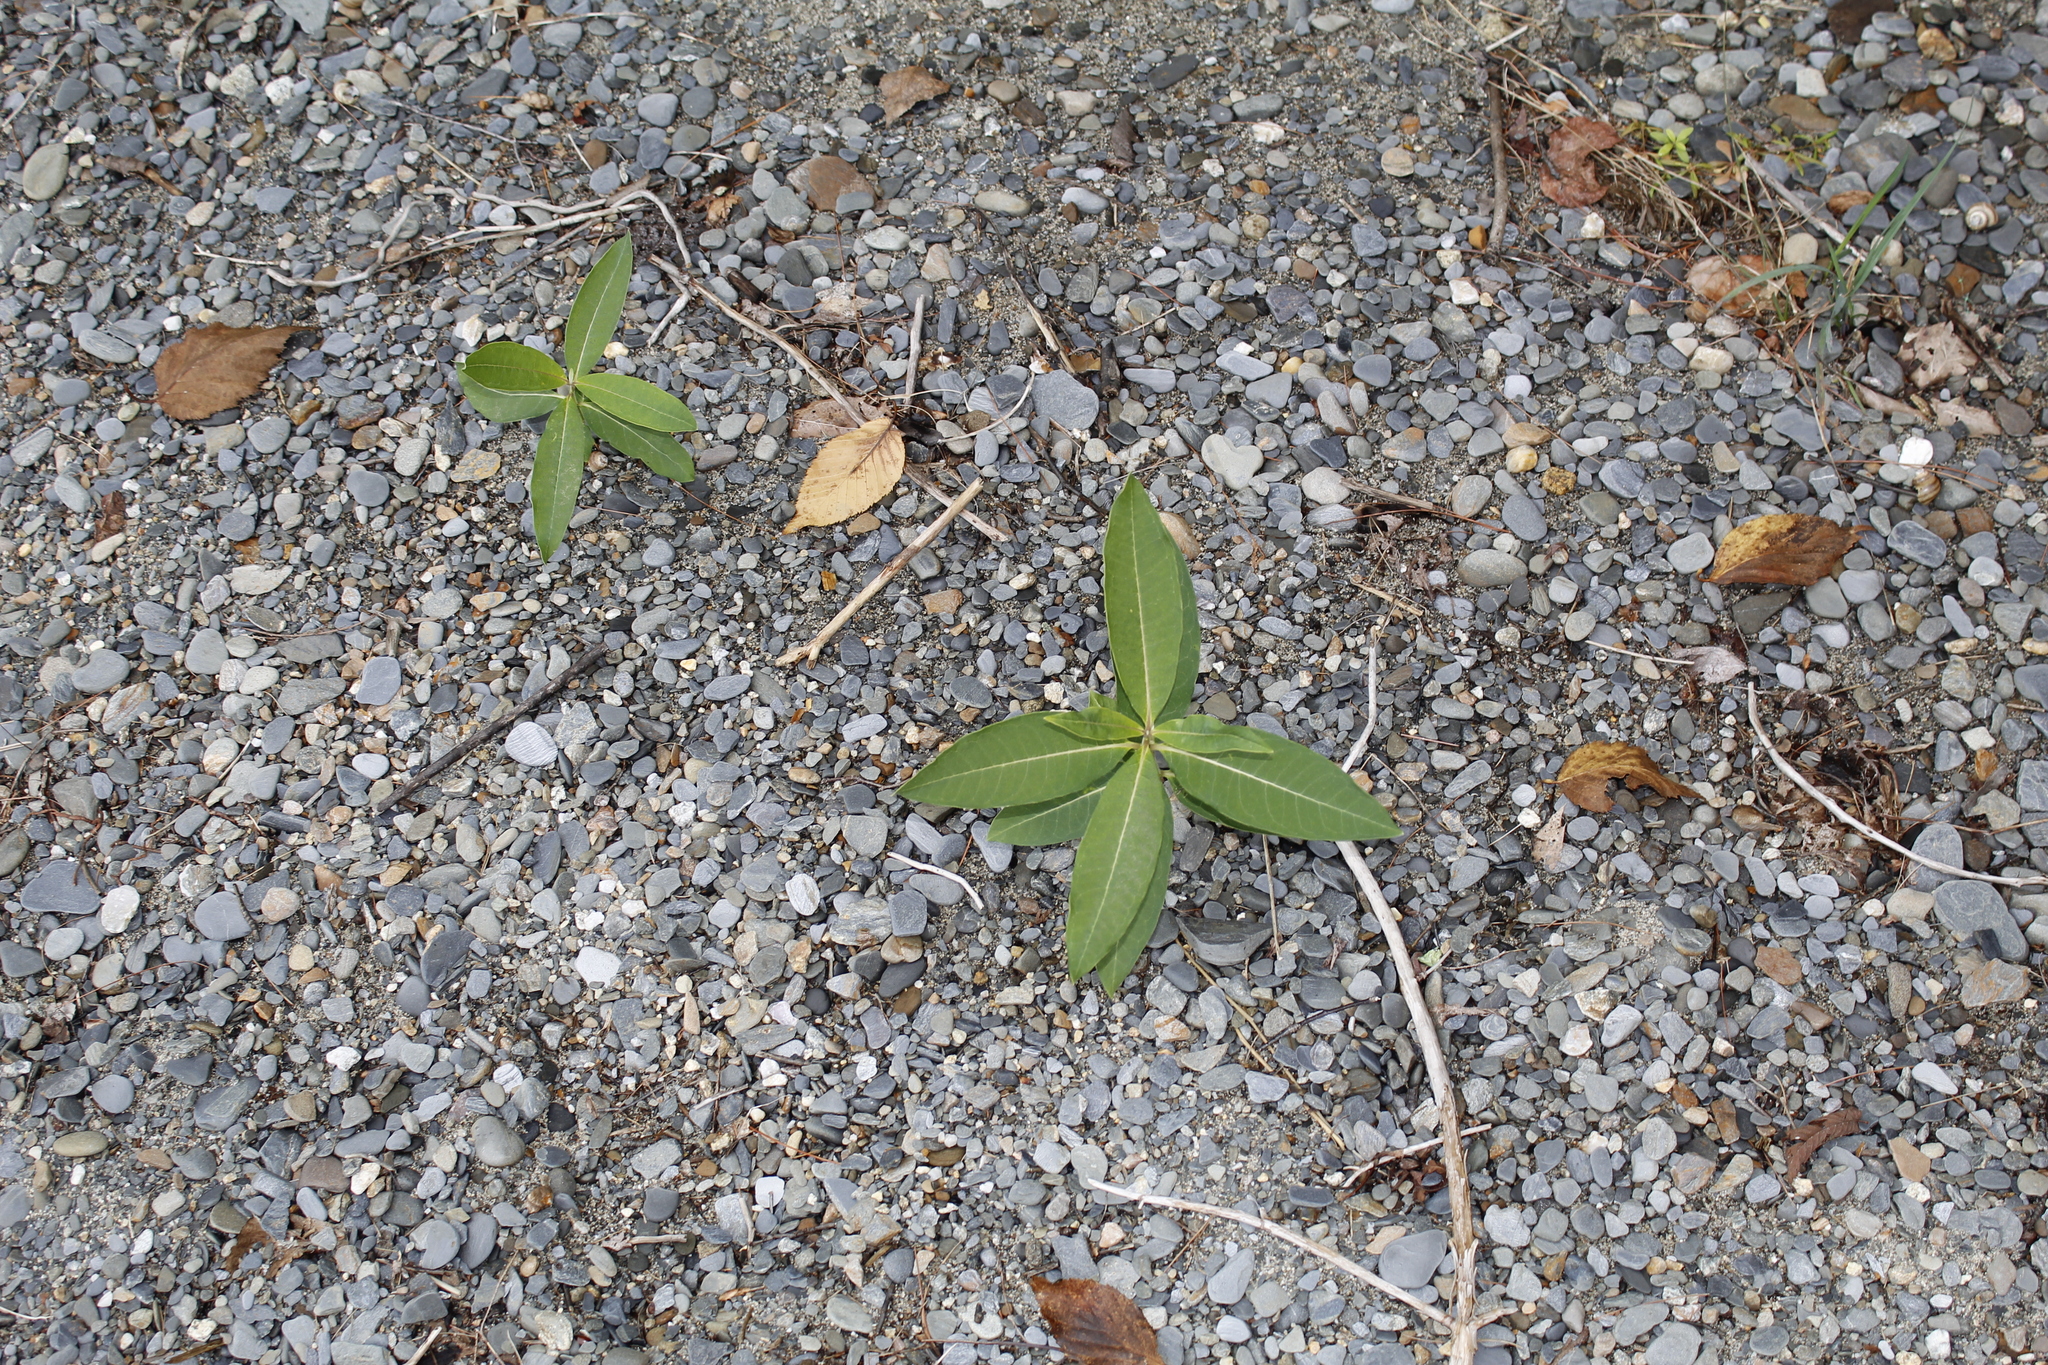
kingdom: Plantae
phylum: Tracheophyta
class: Magnoliopsida
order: Gentianales
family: Apocynaceae
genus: Asclepias
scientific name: Asclepias syriaca
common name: Common milkweed
